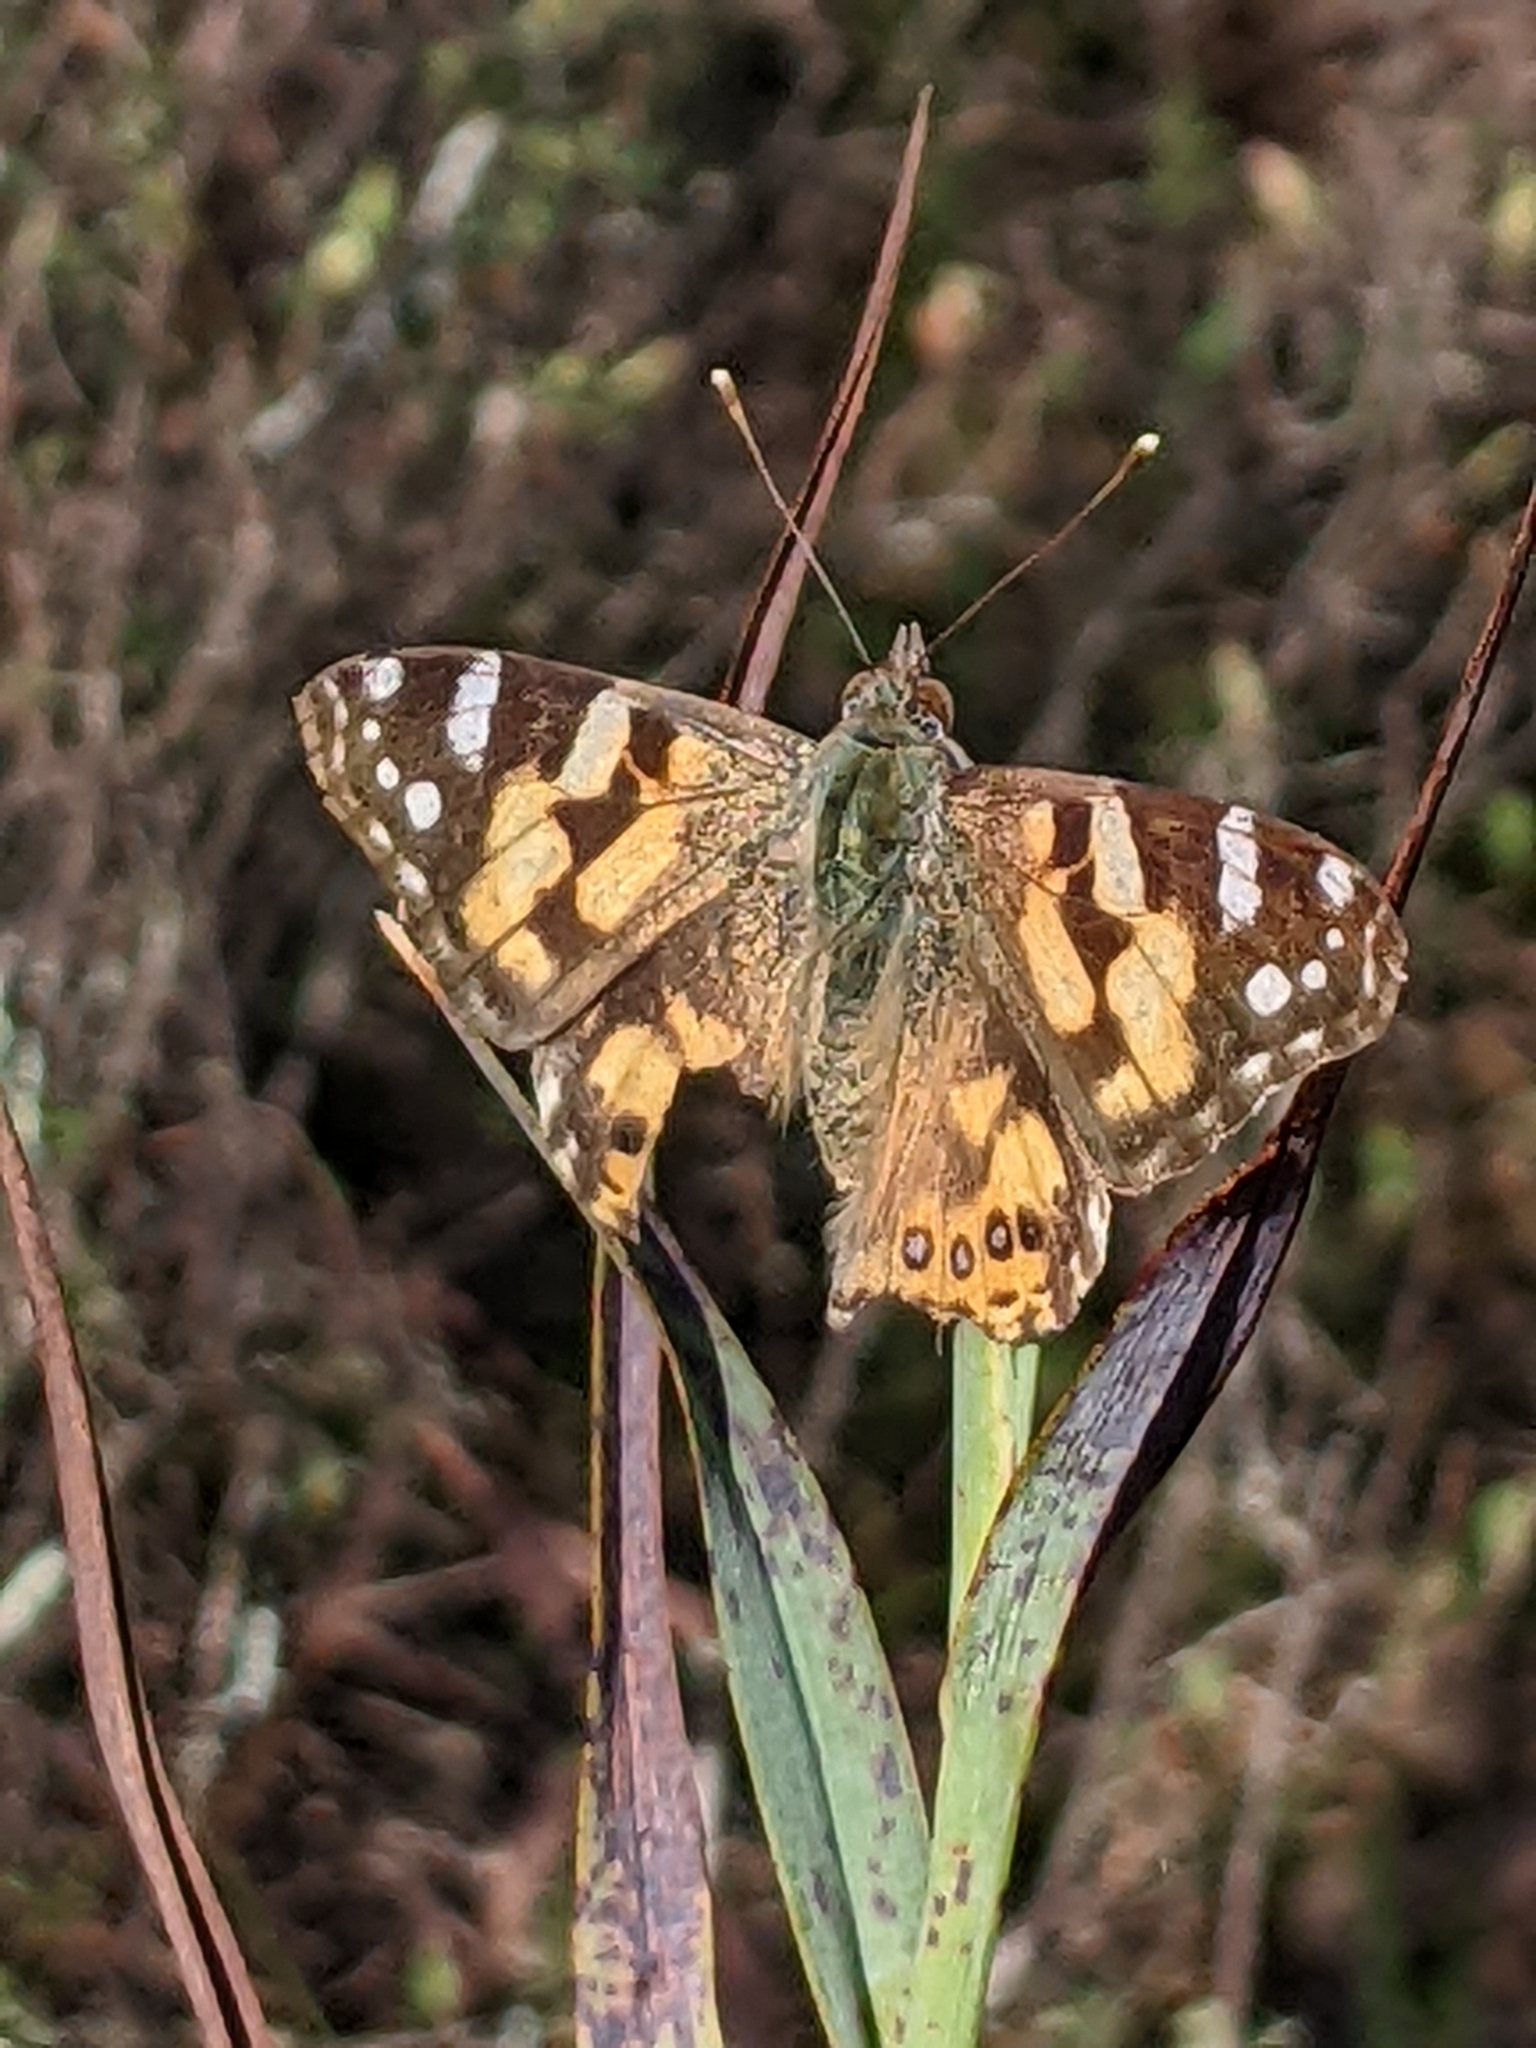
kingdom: Animalia
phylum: Arthropoda
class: Insecta
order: Lepidoptera
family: Nymphalidae
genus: Vanessa
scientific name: Vanessa kershawi
